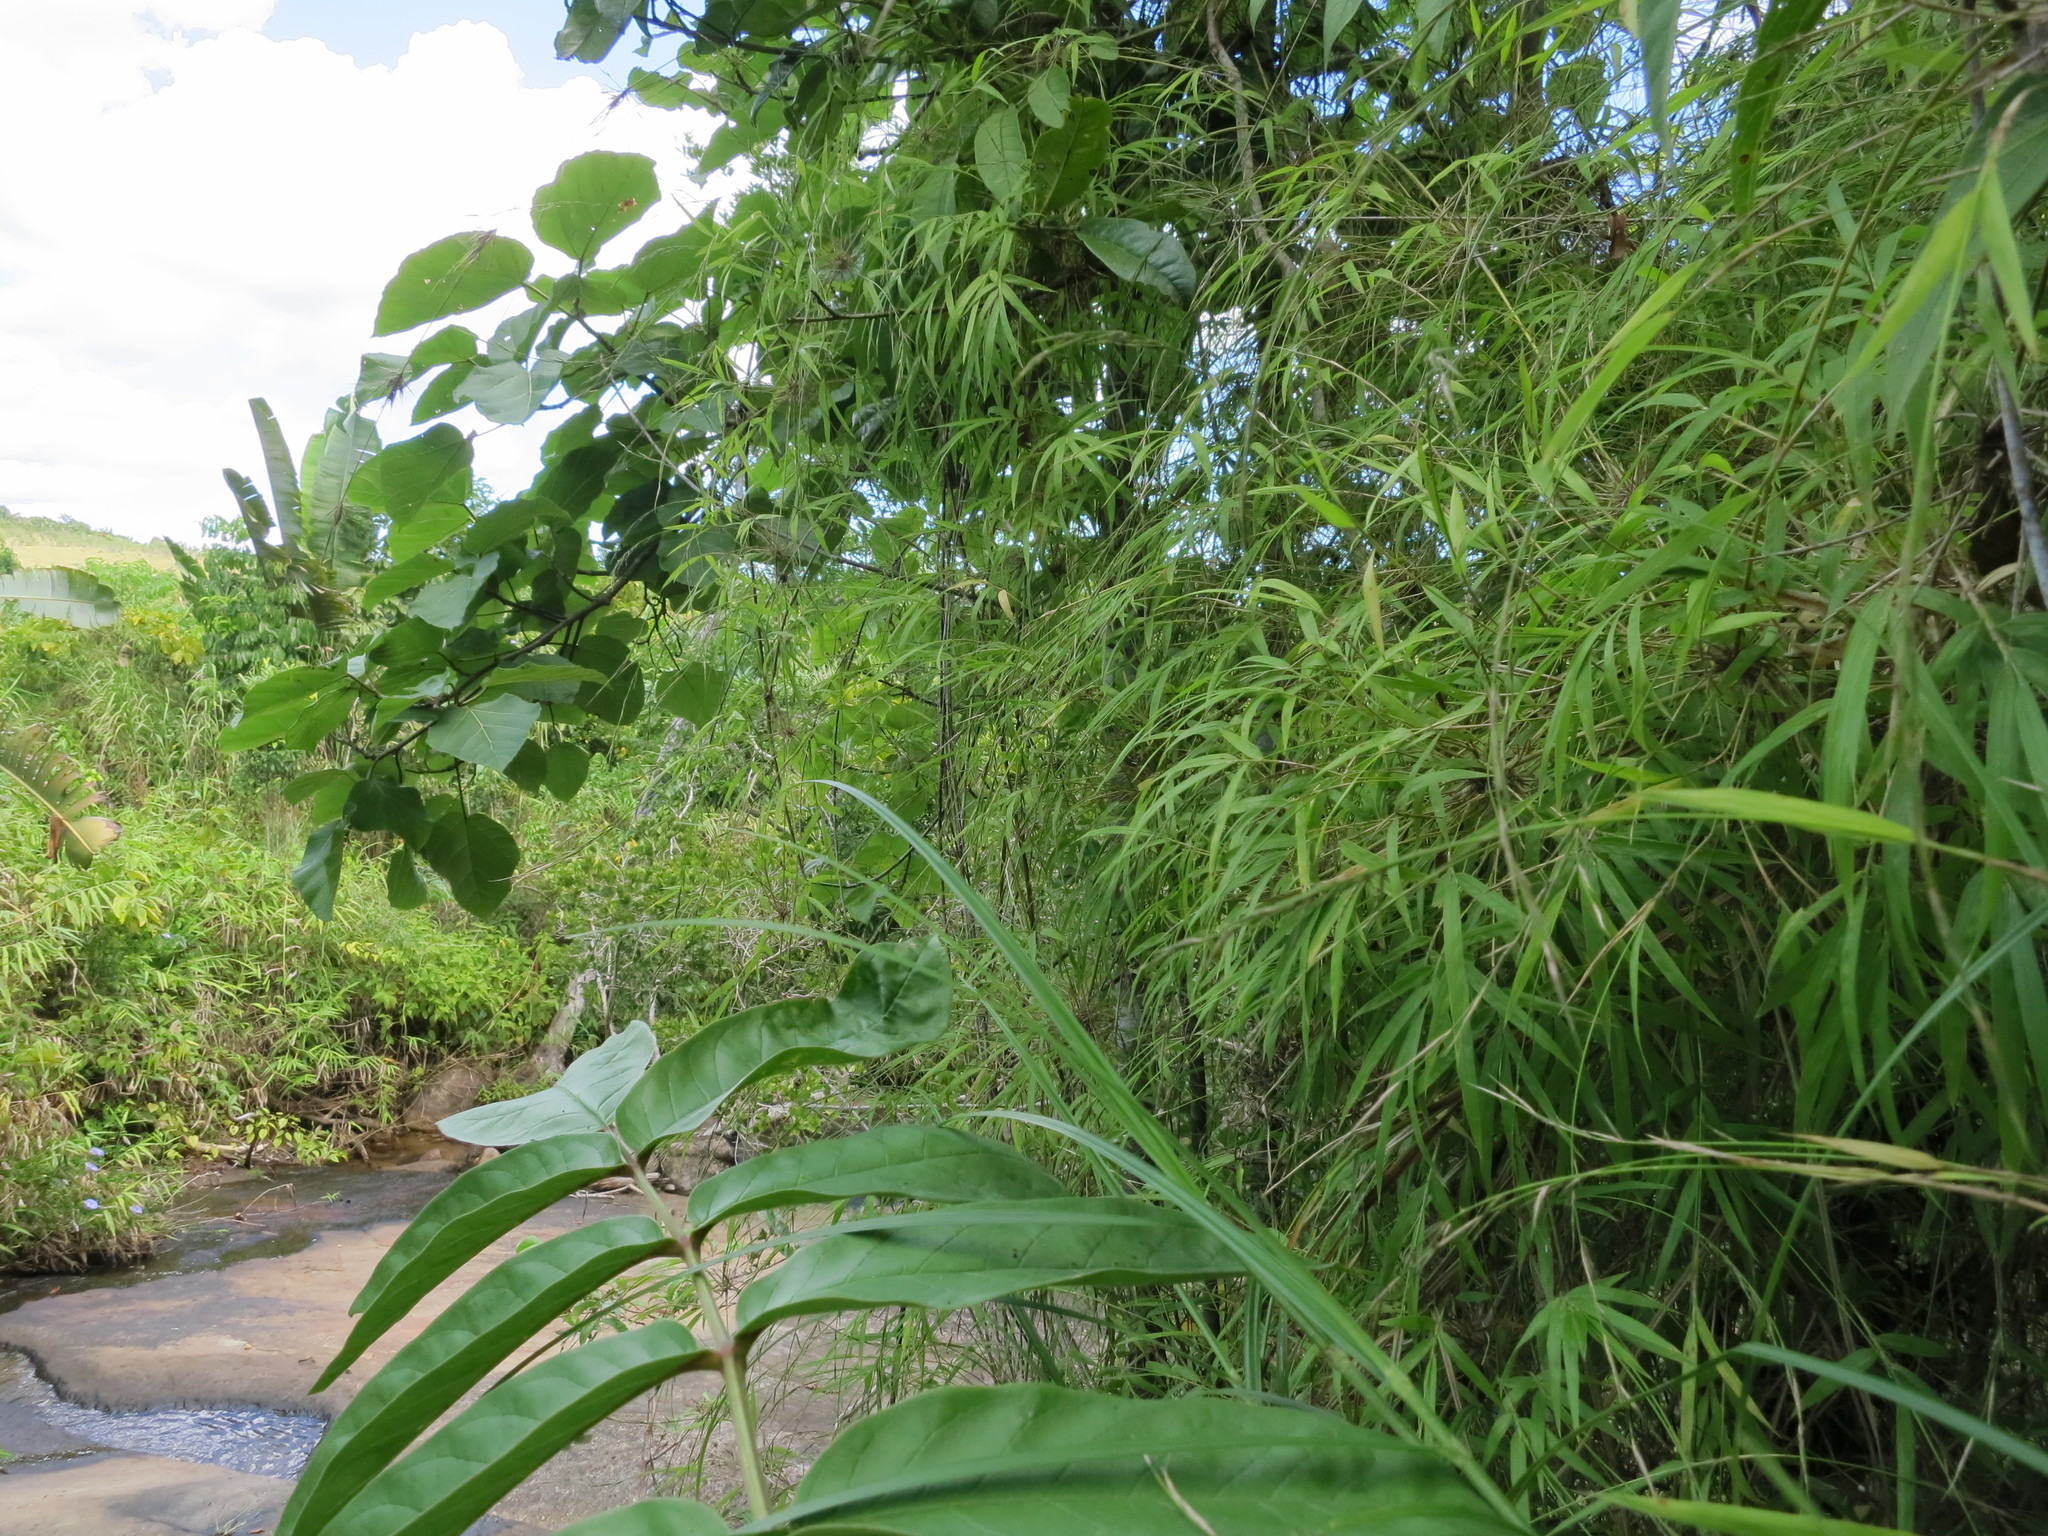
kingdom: Plantae
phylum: Tracheophyta
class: Liliopsida
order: Poales
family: Poaceae
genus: Sirochloa
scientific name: Sirochloa parvifolia
